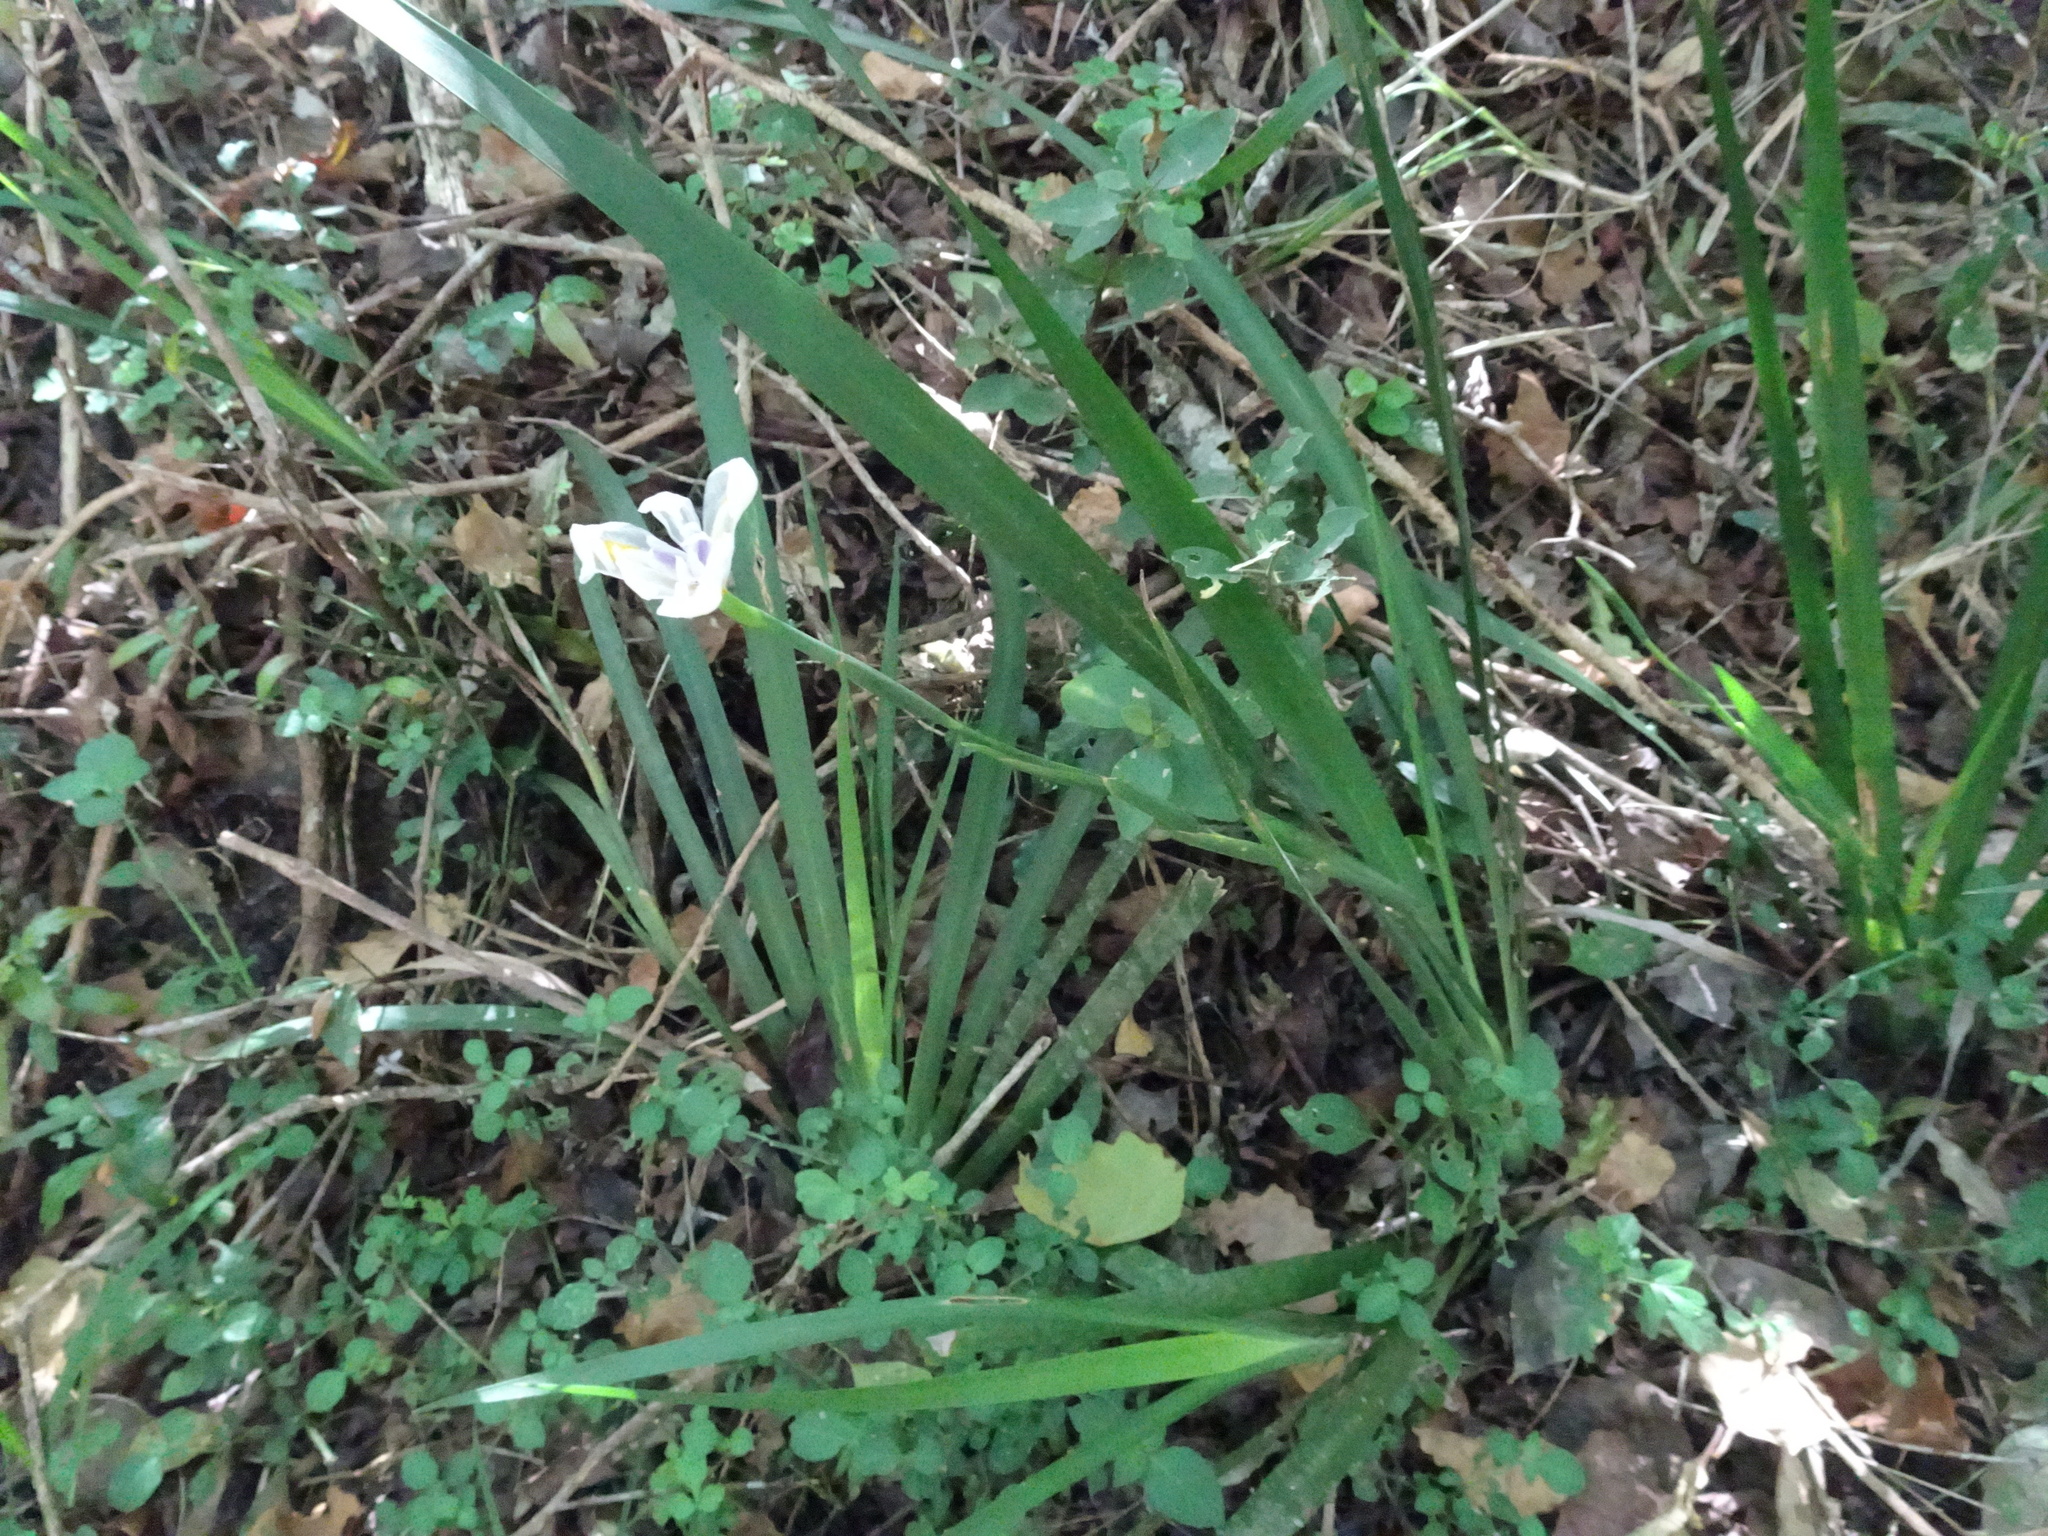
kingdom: Plantae
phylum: Tracheophyta
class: Liliopsida
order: Asparagales
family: Iridaceae
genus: Dietes
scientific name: Dietes iridioides
